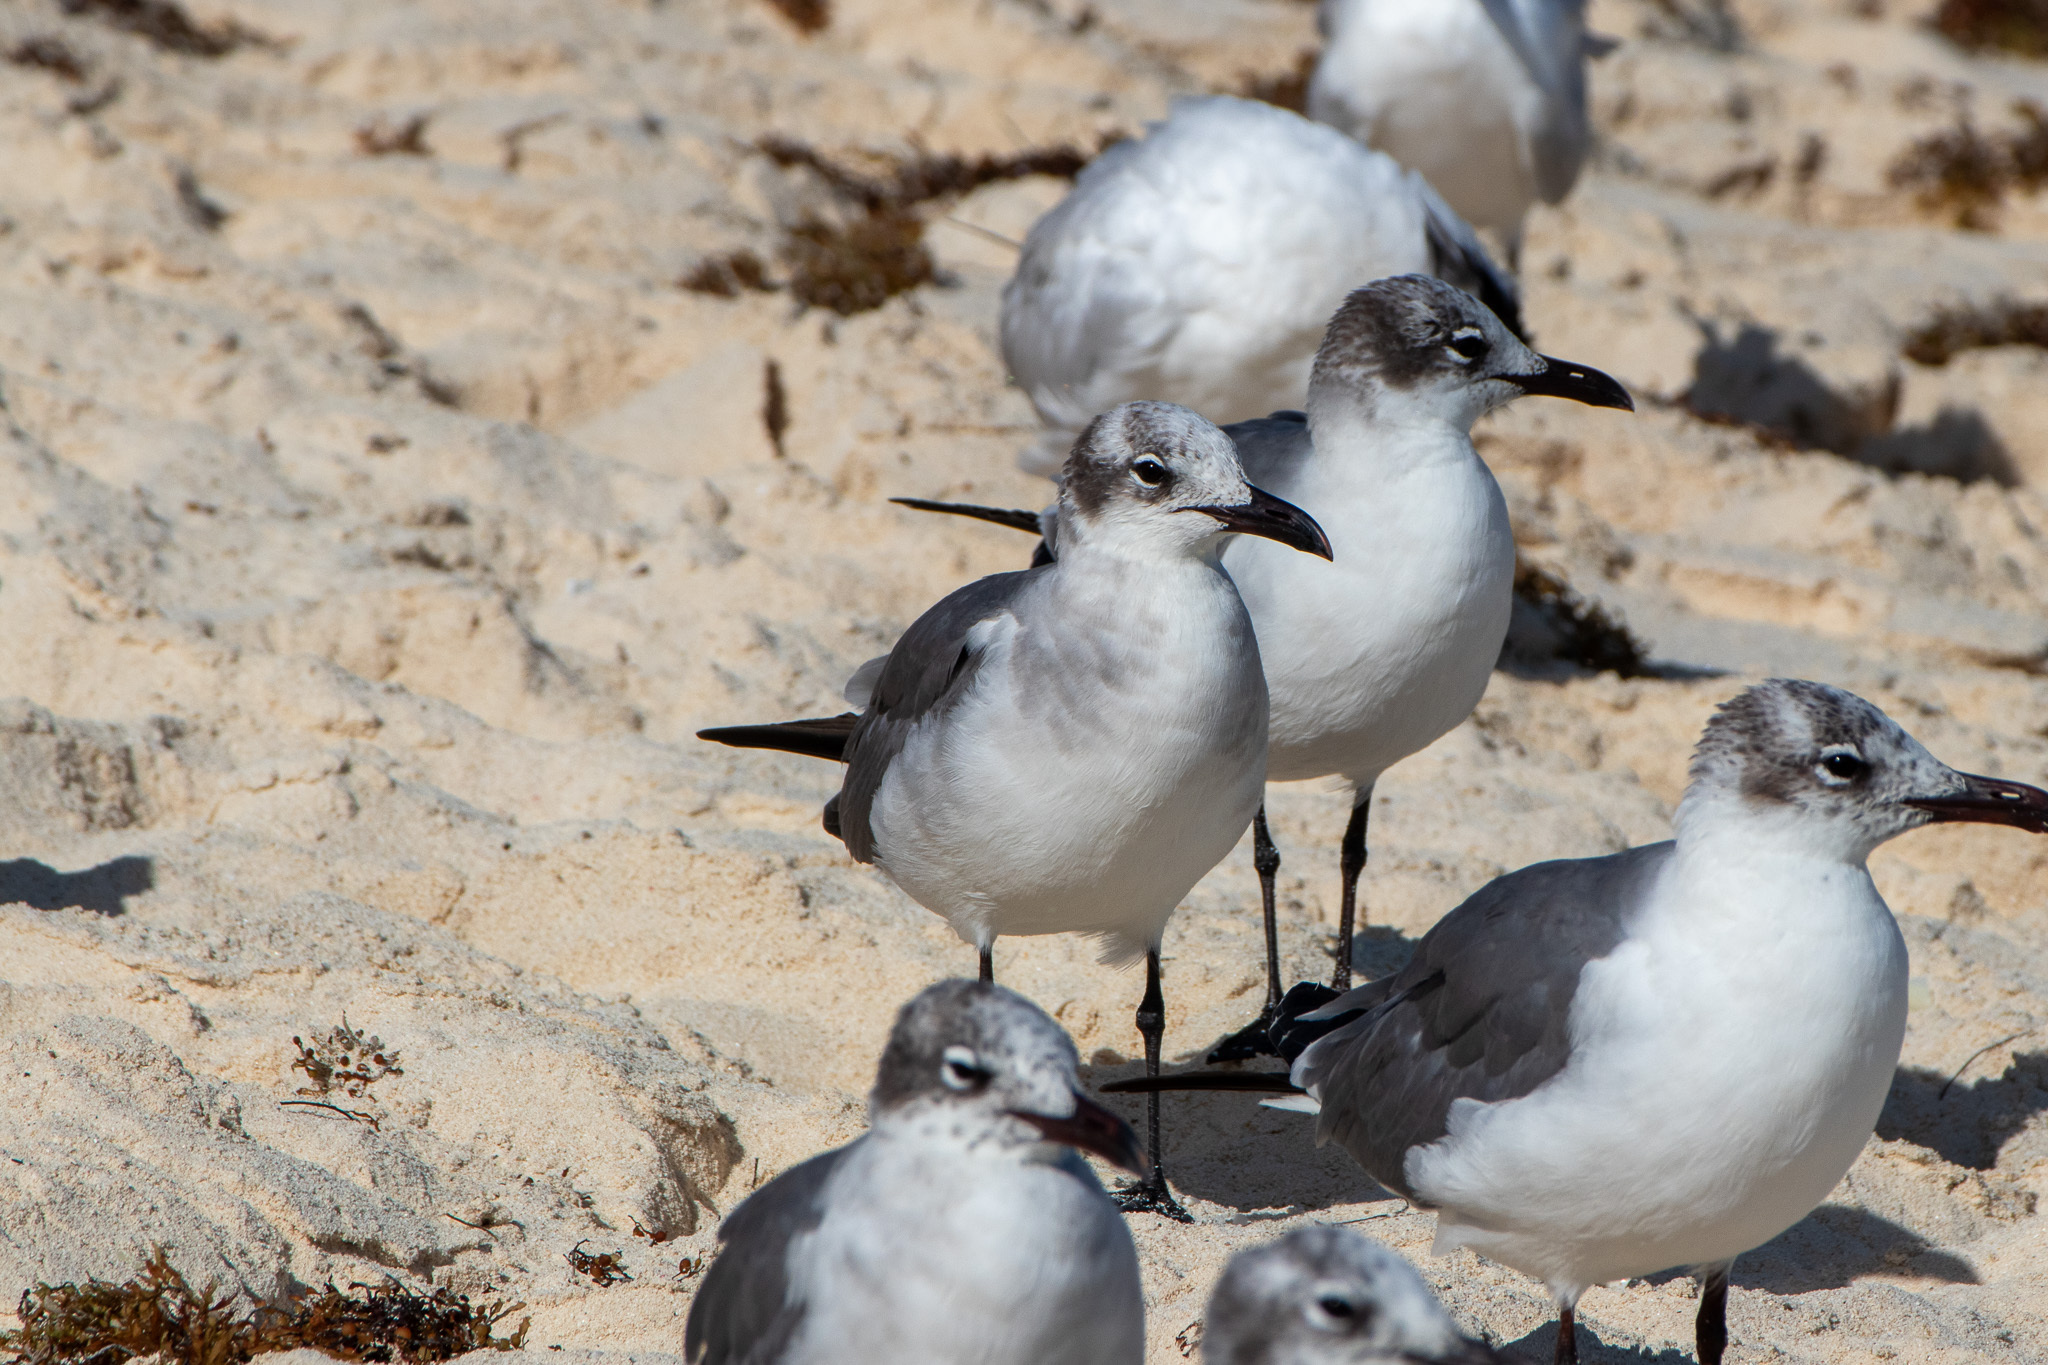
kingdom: Animalia
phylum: Chordata
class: Aves
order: Charadriiformes
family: Laridae
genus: Leucophaeus
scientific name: Leucophaeus atricilla
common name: Laughing gull
